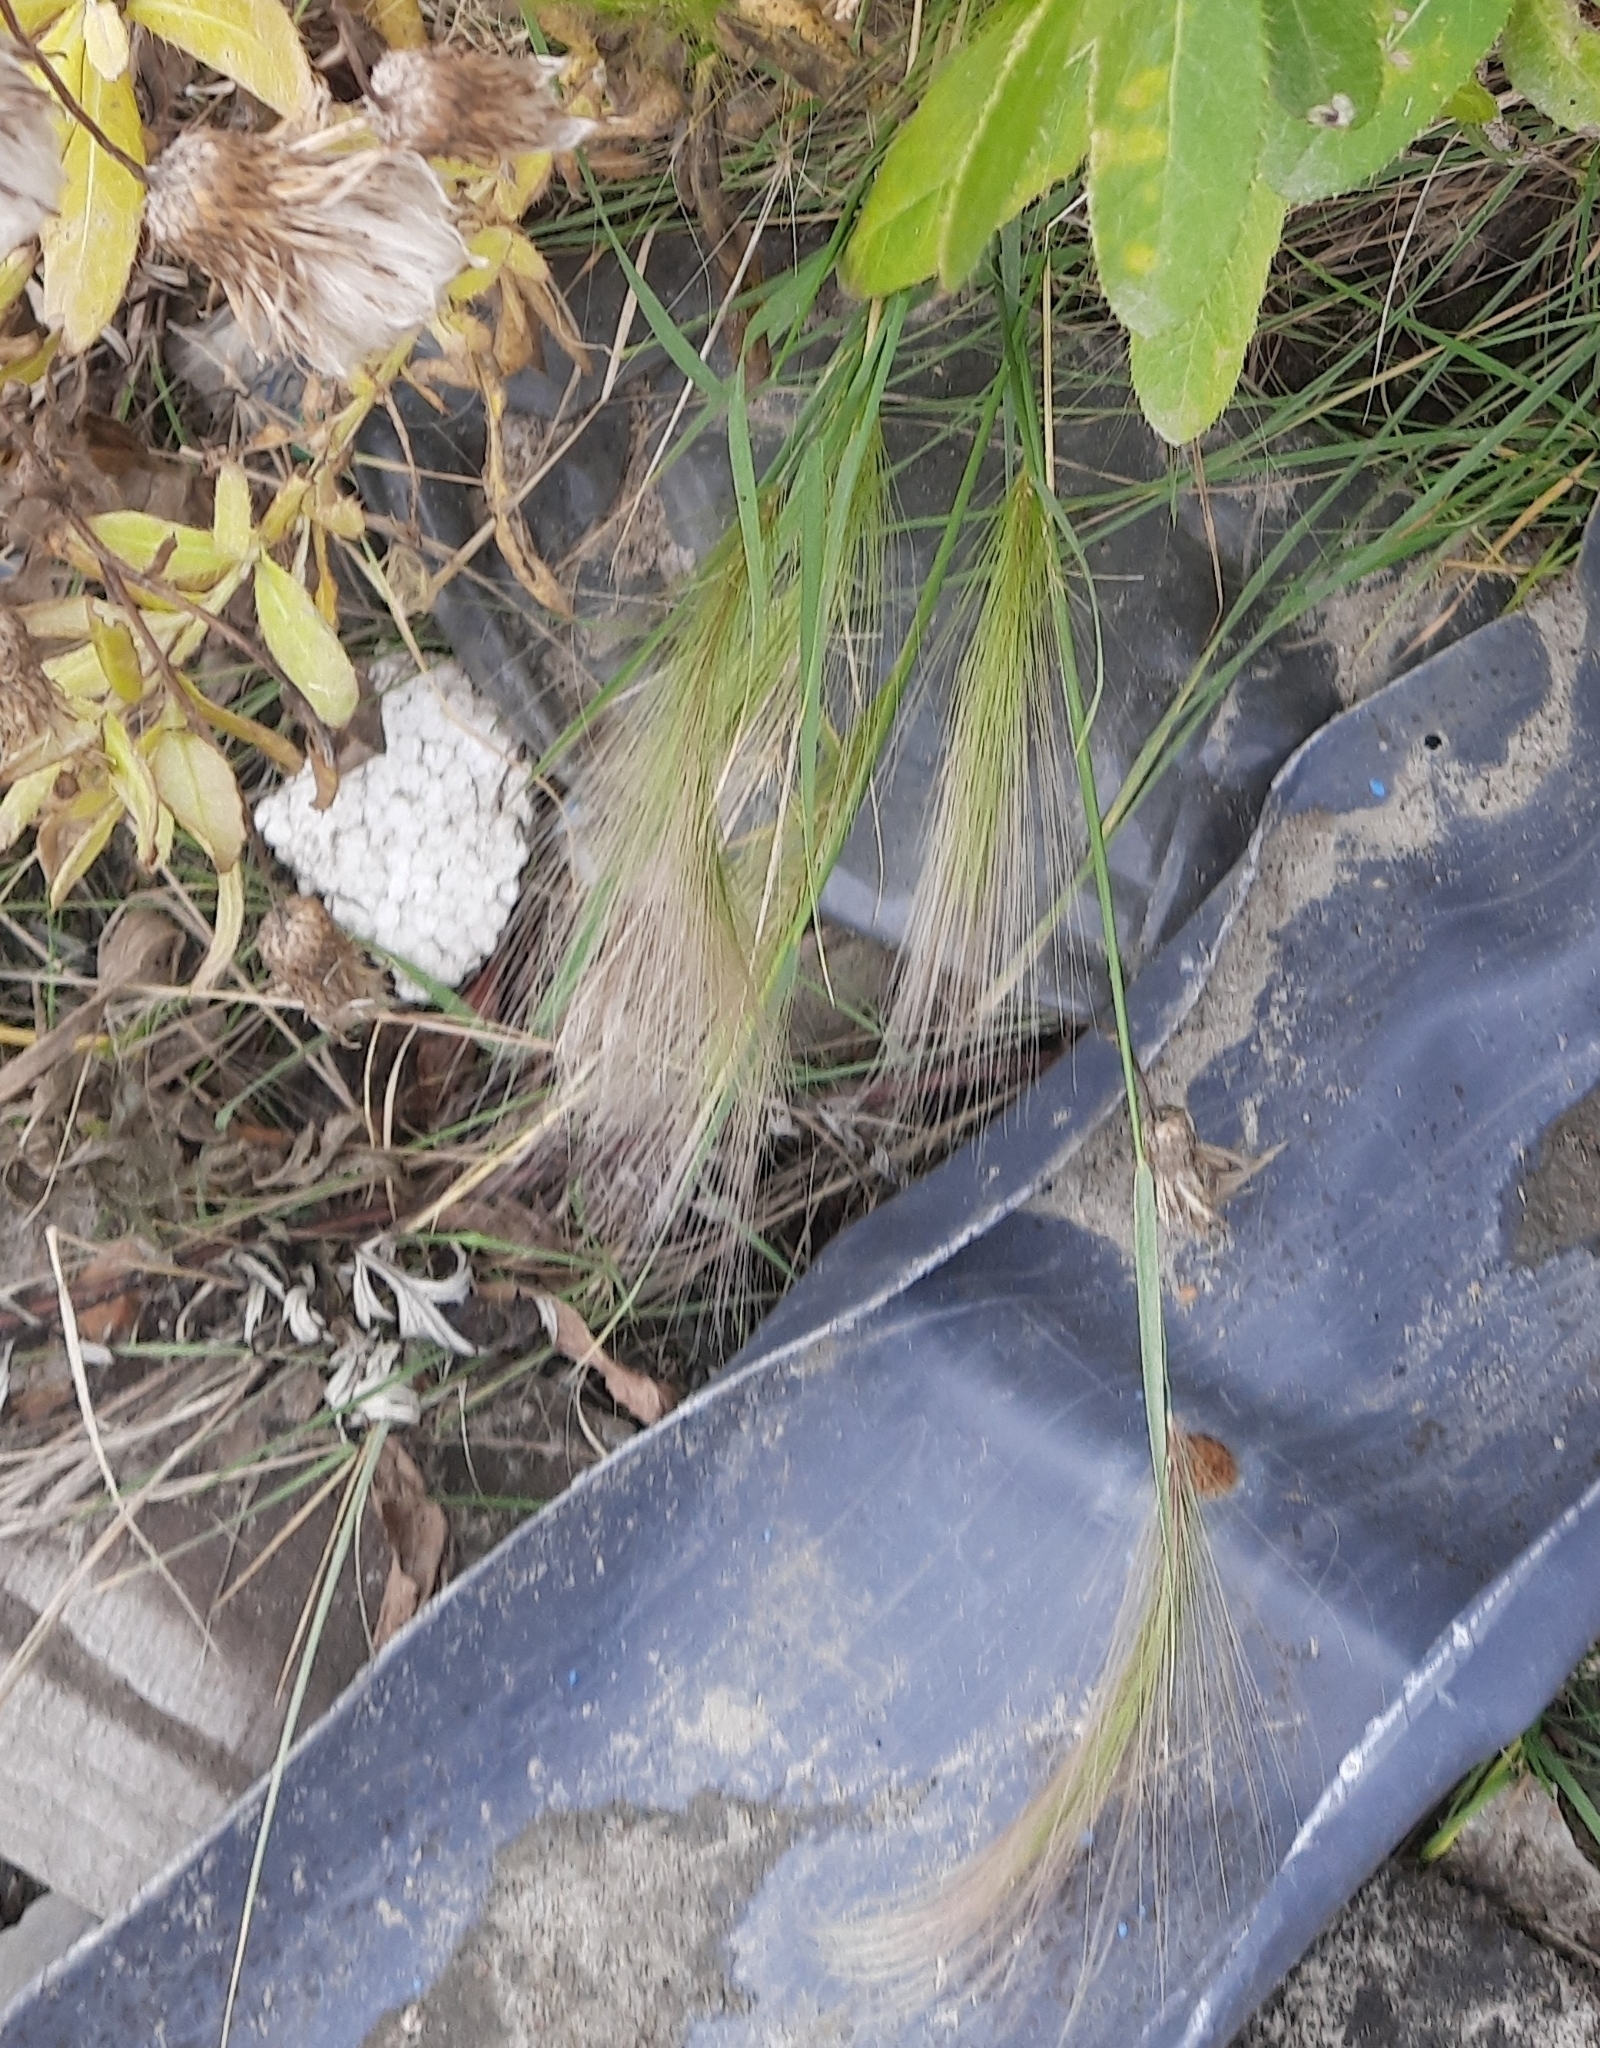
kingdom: Plantae
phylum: Tracheophyta
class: Liliopsida
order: Poales
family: Poaceae
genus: Hordeum
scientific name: Hordeum jubatum
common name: Foxtail barley
